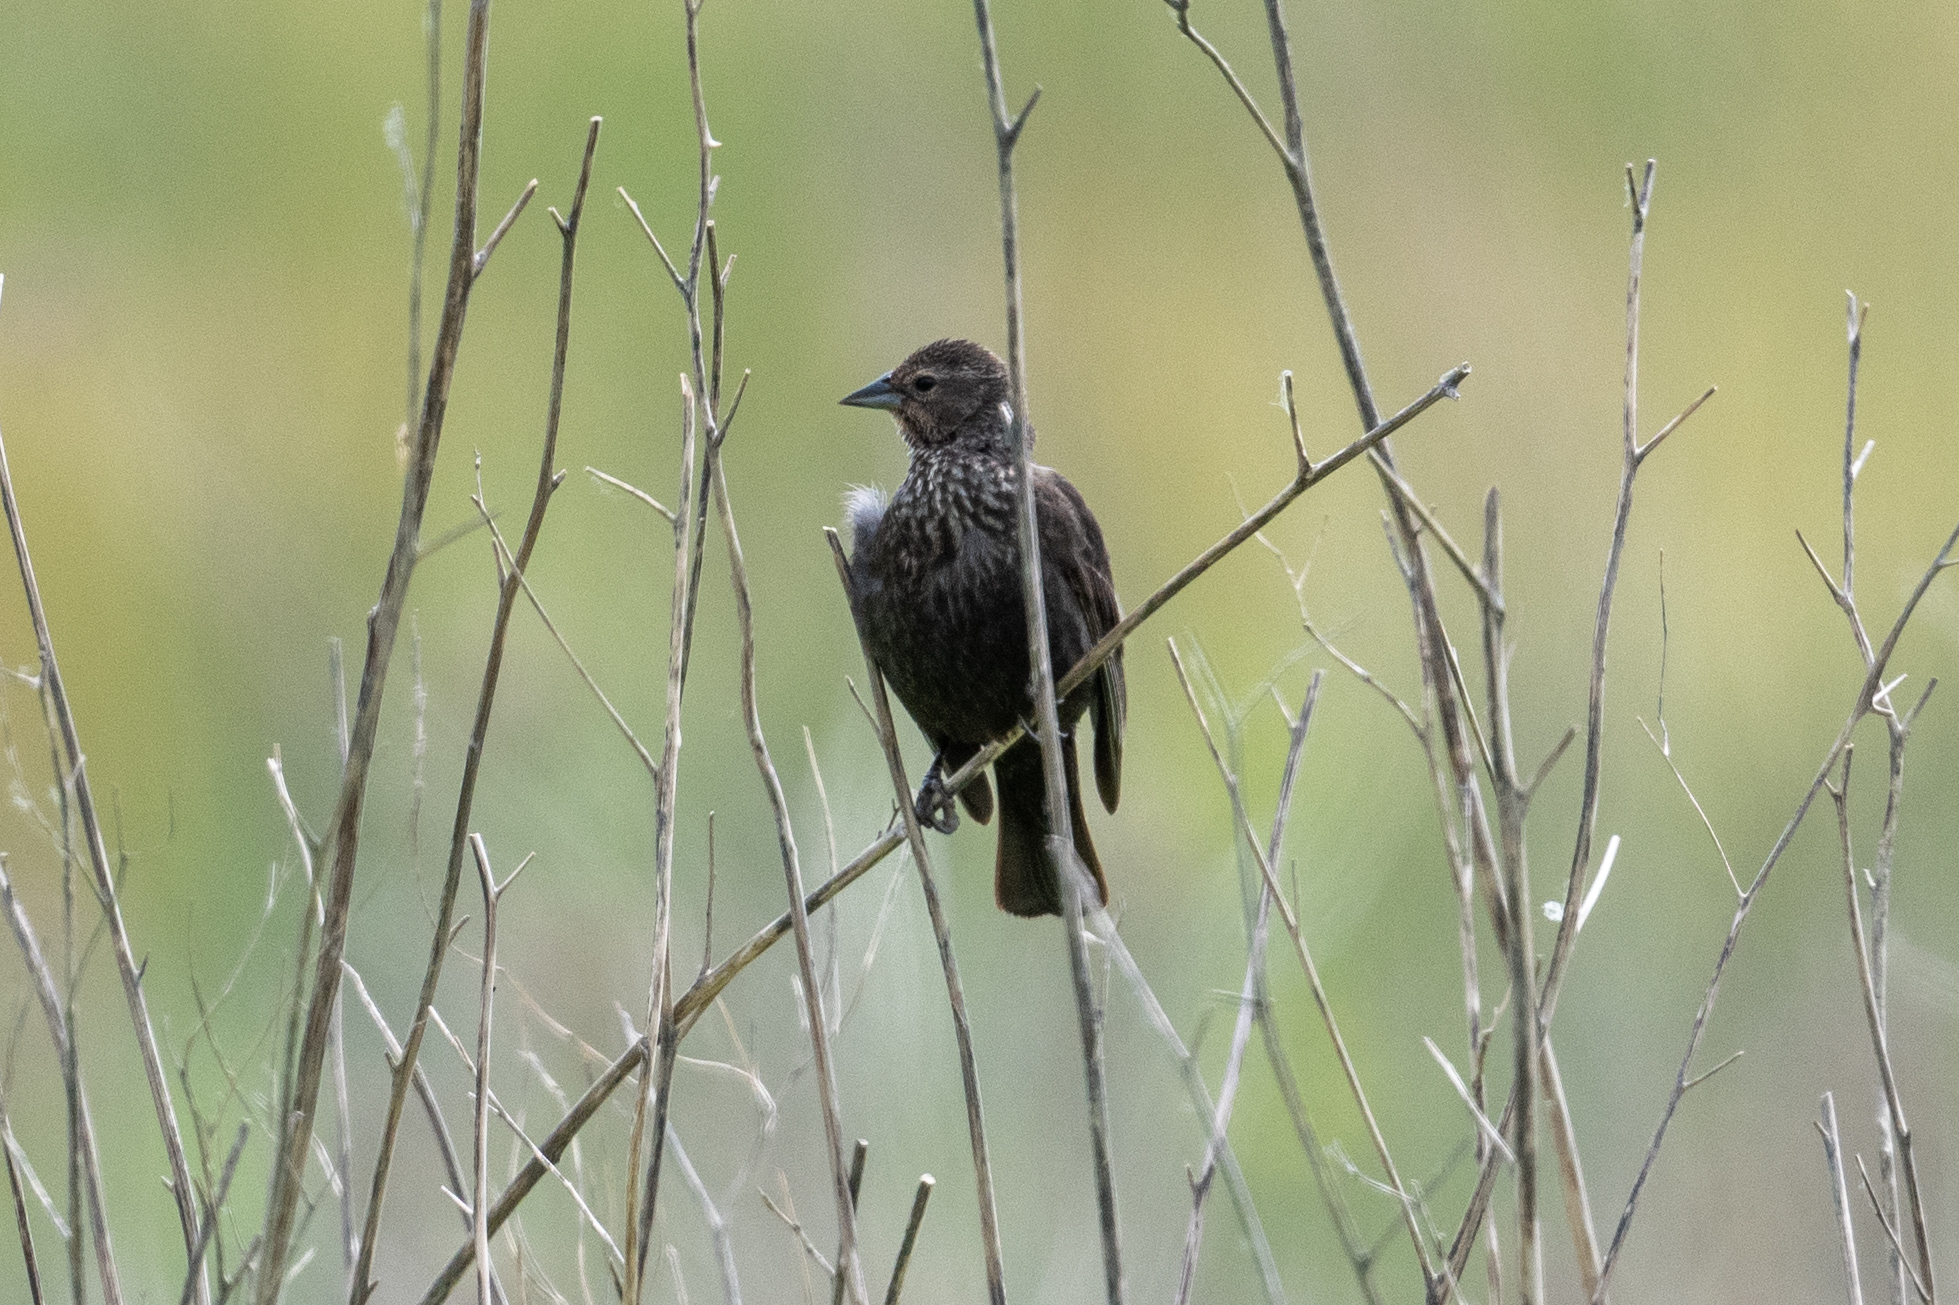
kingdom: Animalia
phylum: Chordata
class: Aves
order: Passeriformes
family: Icteridae
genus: Agelaius
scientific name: Agelaius tricolor
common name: Tricolored blackbird
